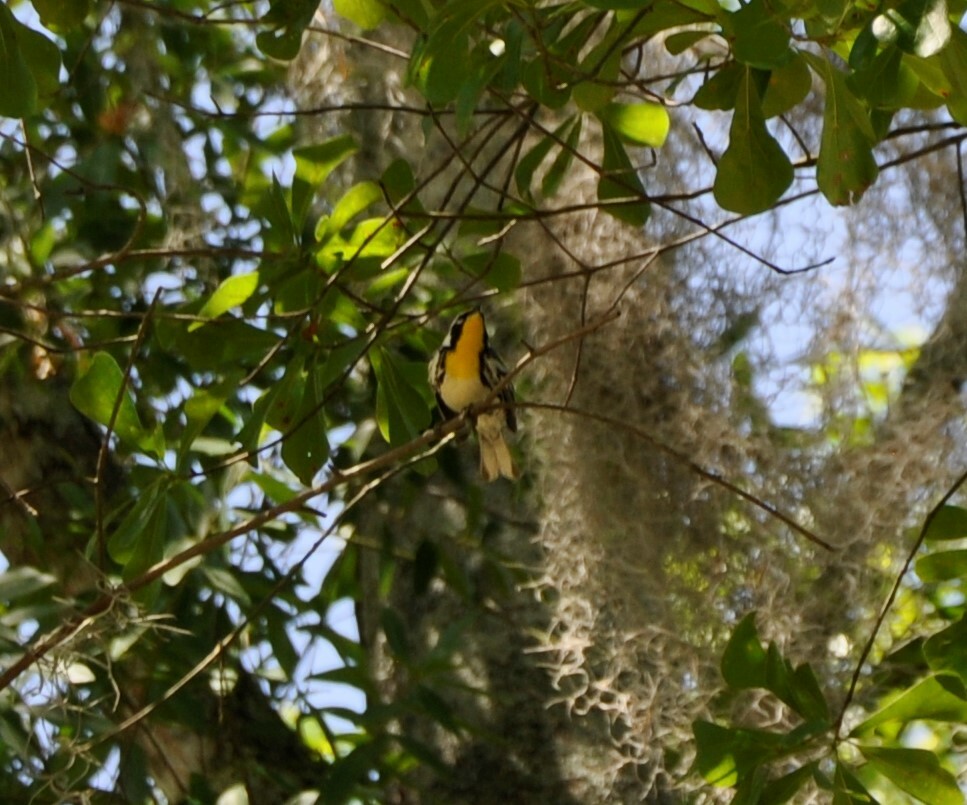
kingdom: Animalia
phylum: Chordata
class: Aves
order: Passeriformes
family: Parulidae
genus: Setophaga
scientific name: Setophaga dominica
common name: Yellow-throated warbler
